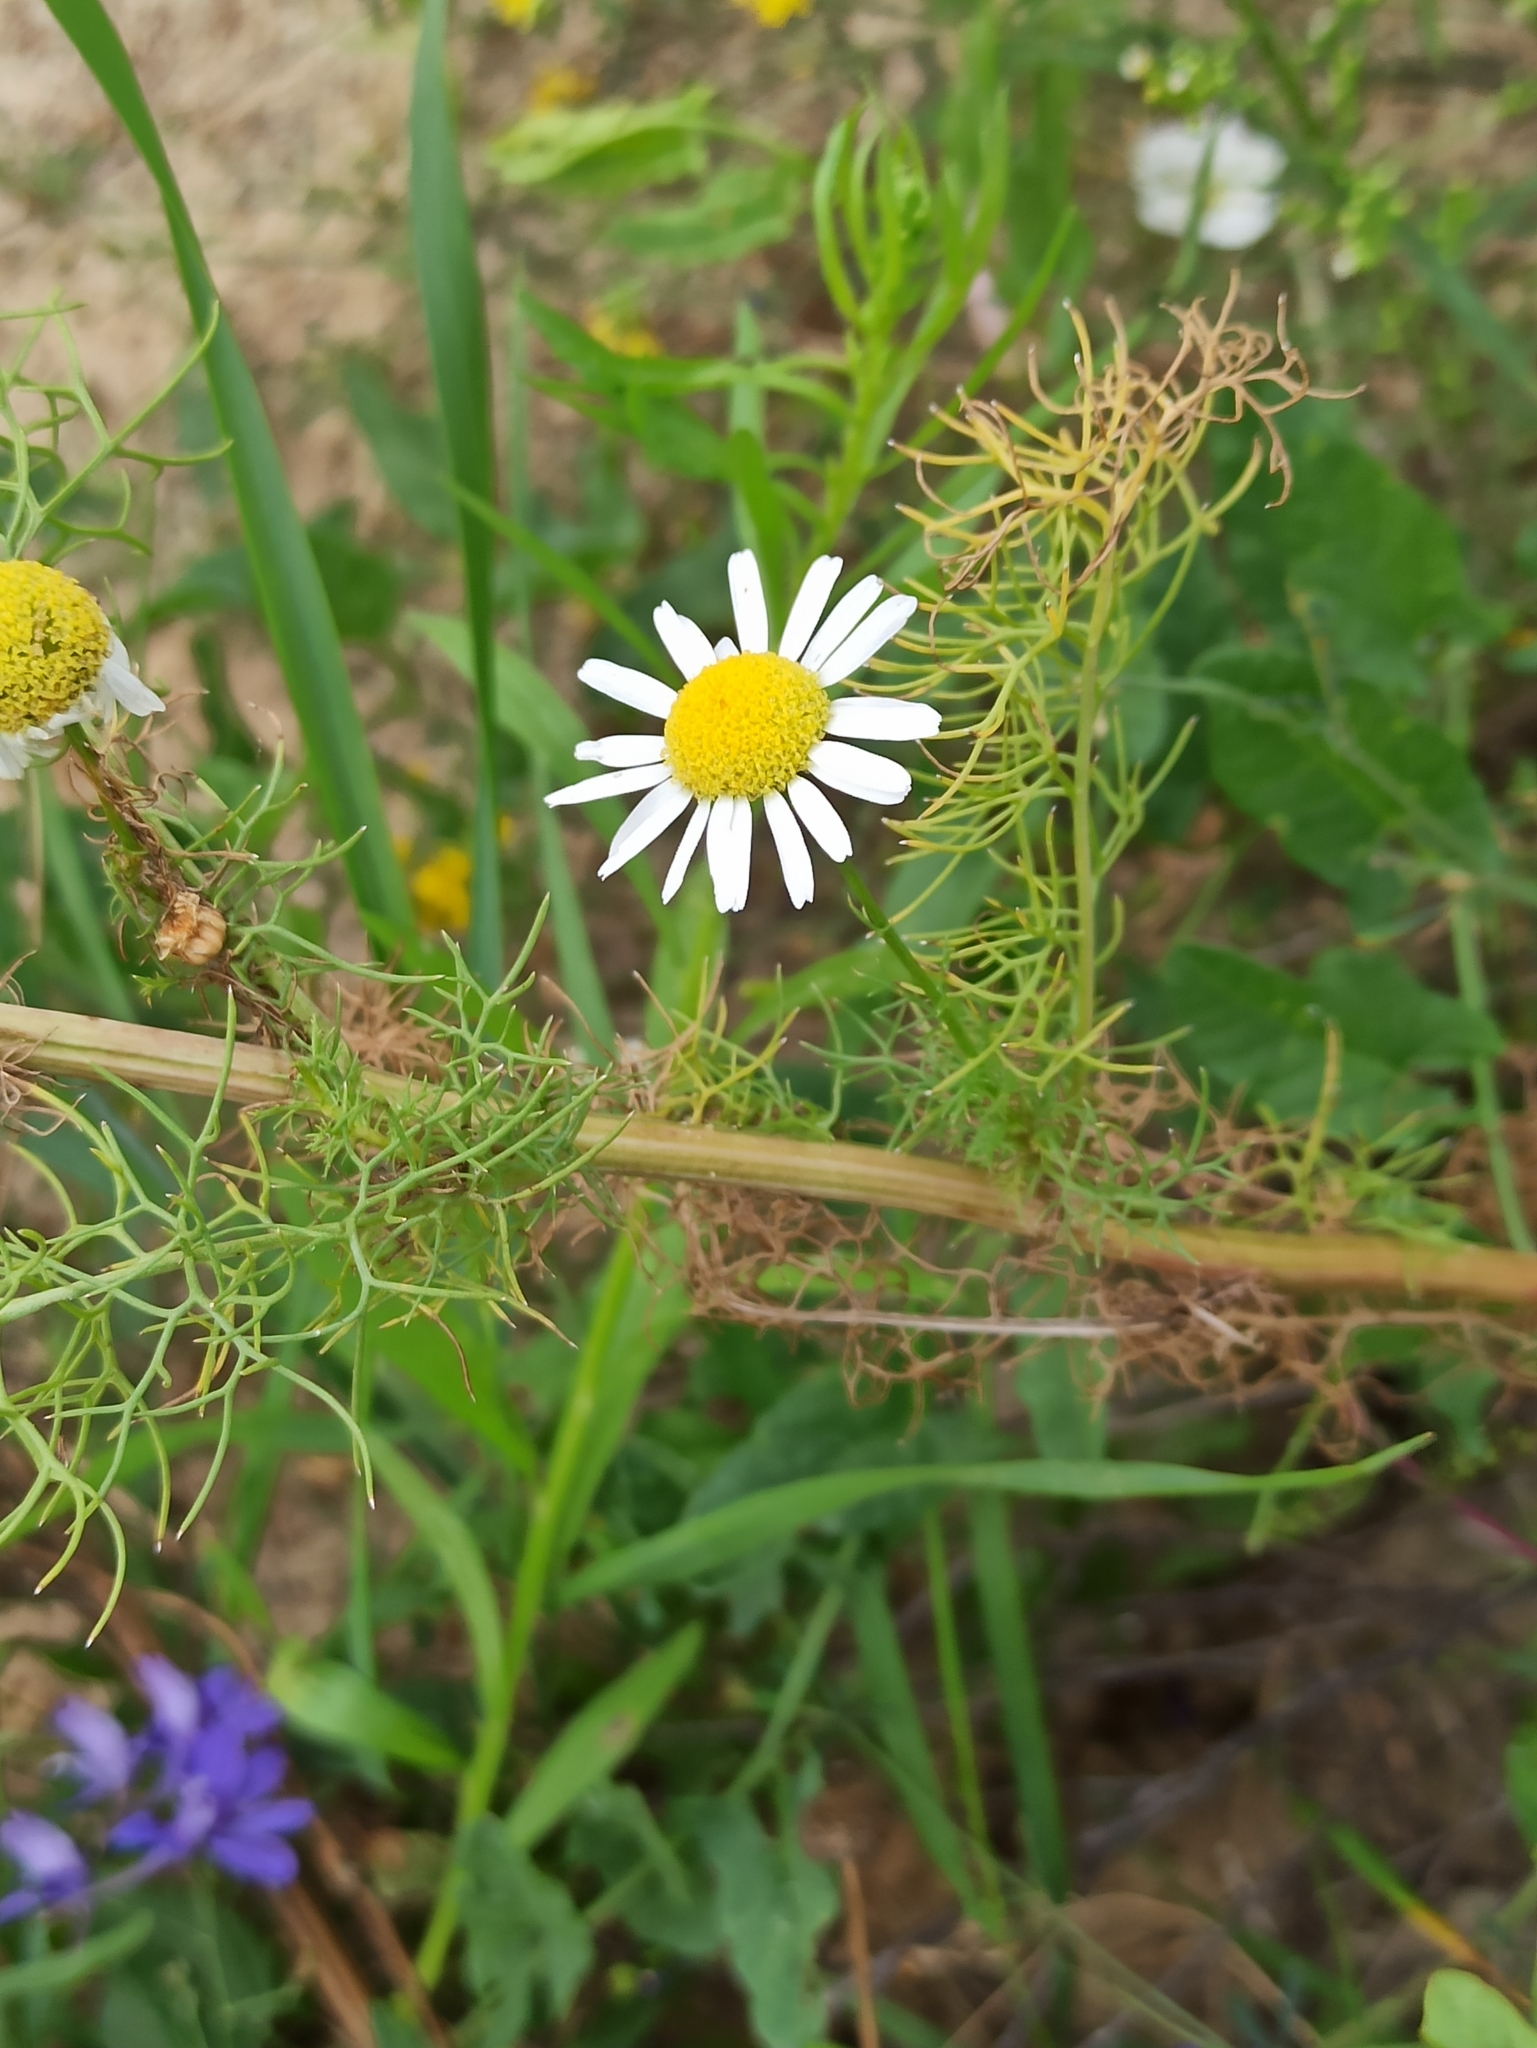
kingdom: Plantae
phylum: Tracheophyta
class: Magnoliopsida
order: Asterales
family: Asteraceae
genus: Tripleurospermum
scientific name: Tripleurospermum inodorum
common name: Scentless mayweed
